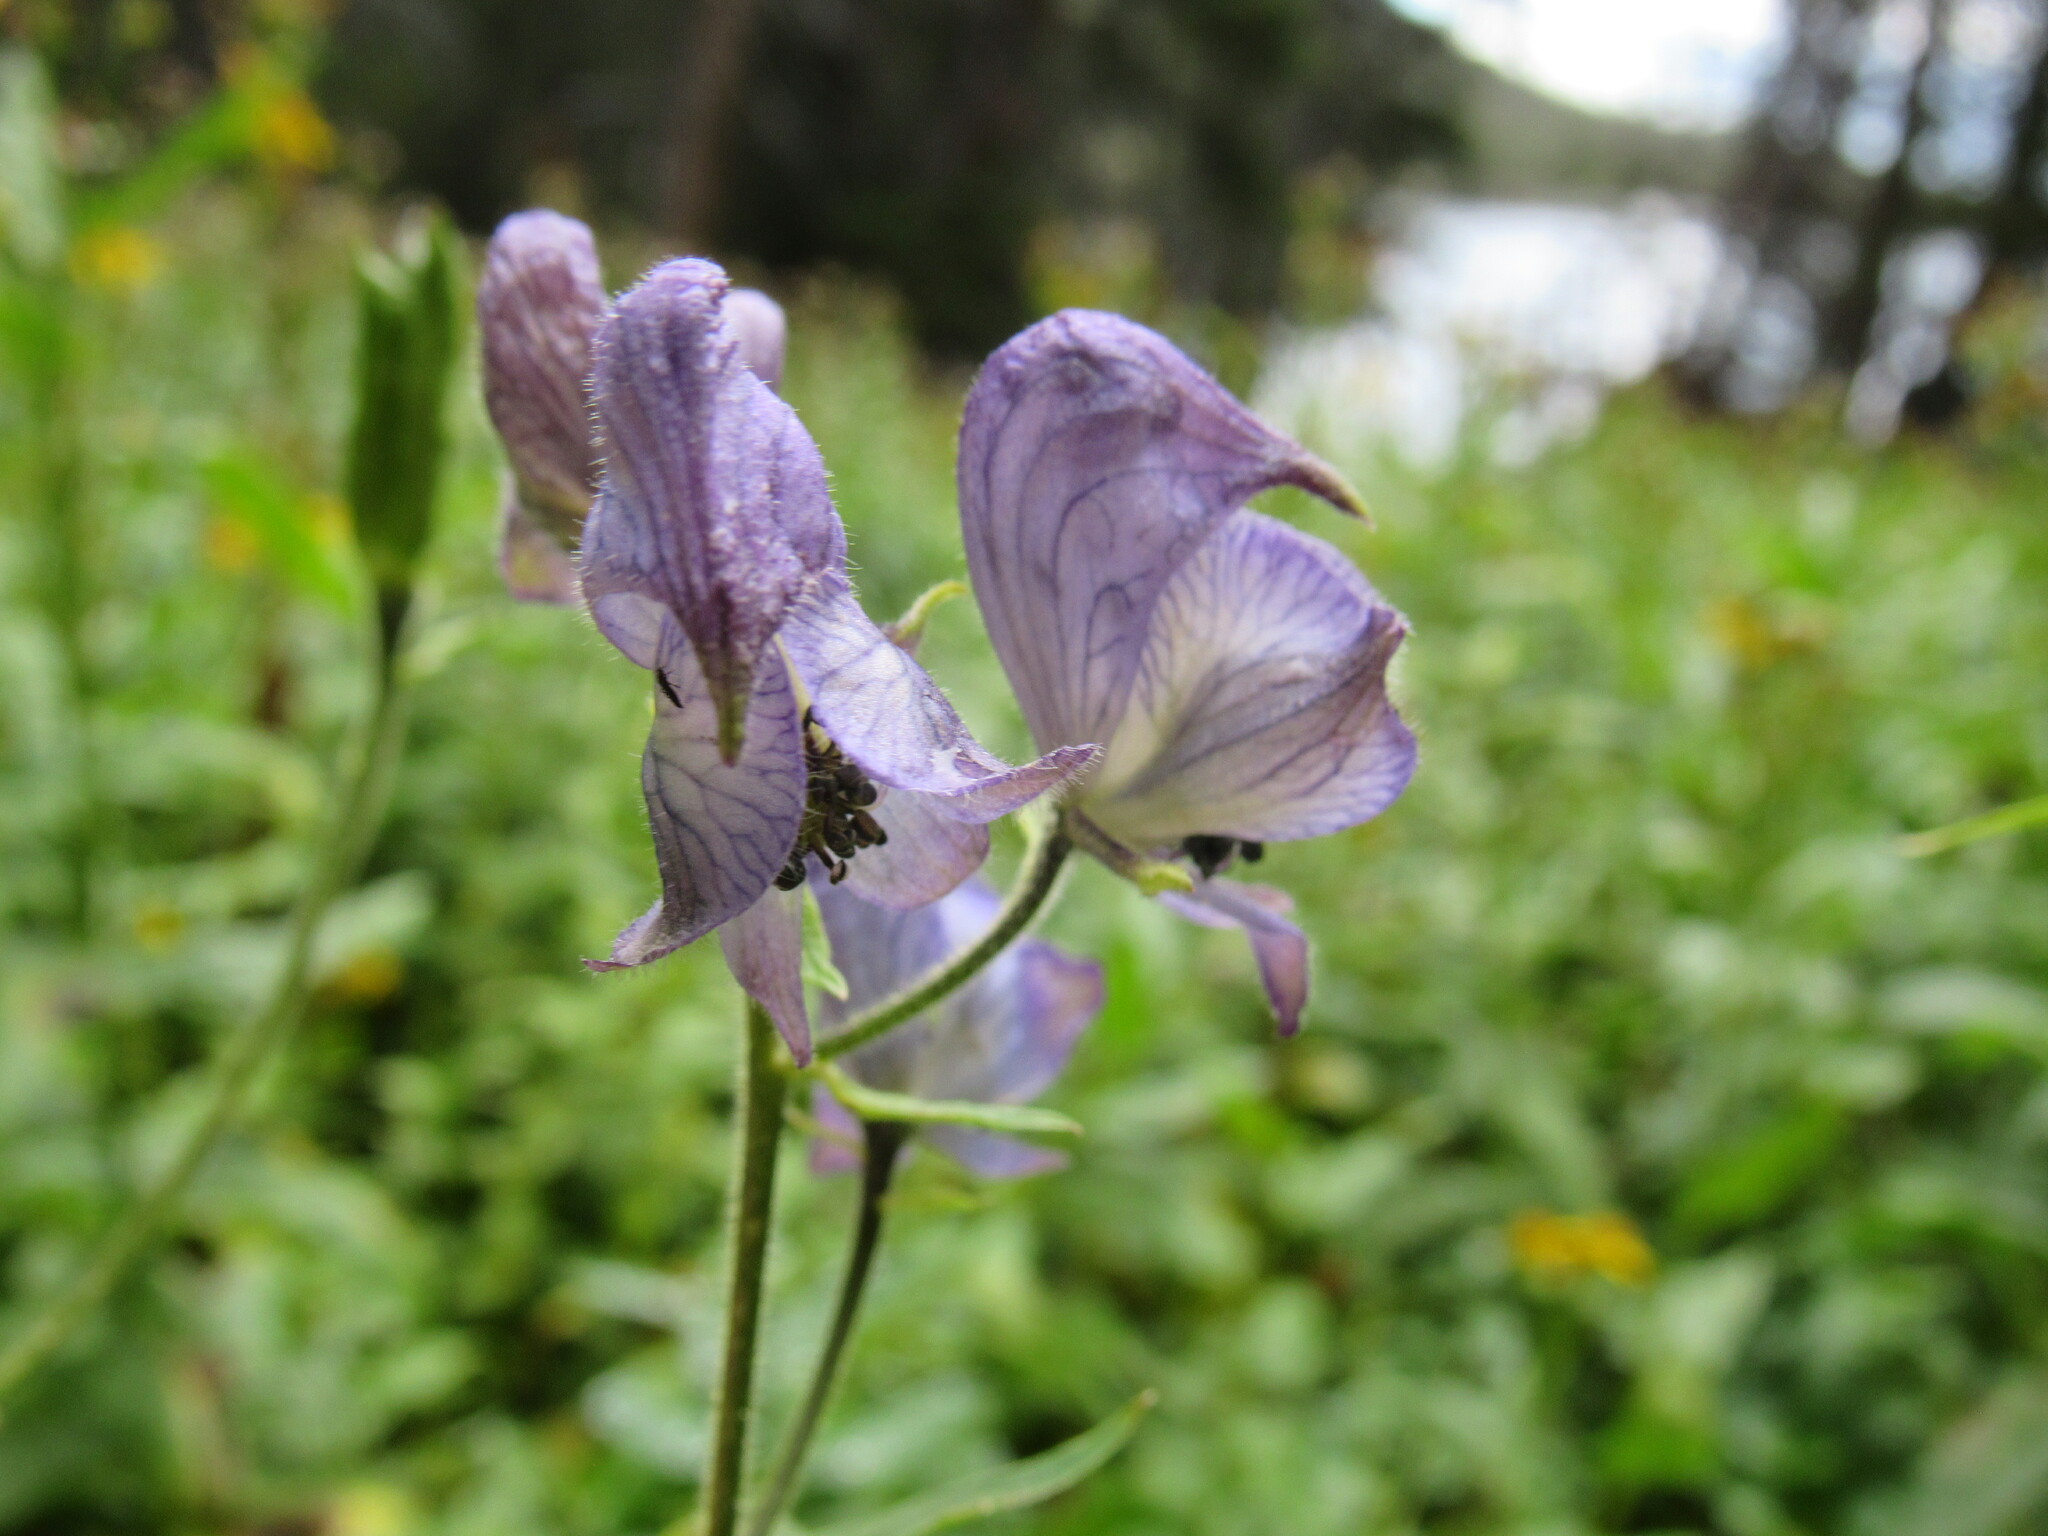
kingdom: Plantae
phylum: Tracheophyta
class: Magnoliopsida
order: Ranunculales
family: Ranunculaceae
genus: Aconitum
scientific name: Aconitum columbianum
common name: Columbia aconite
